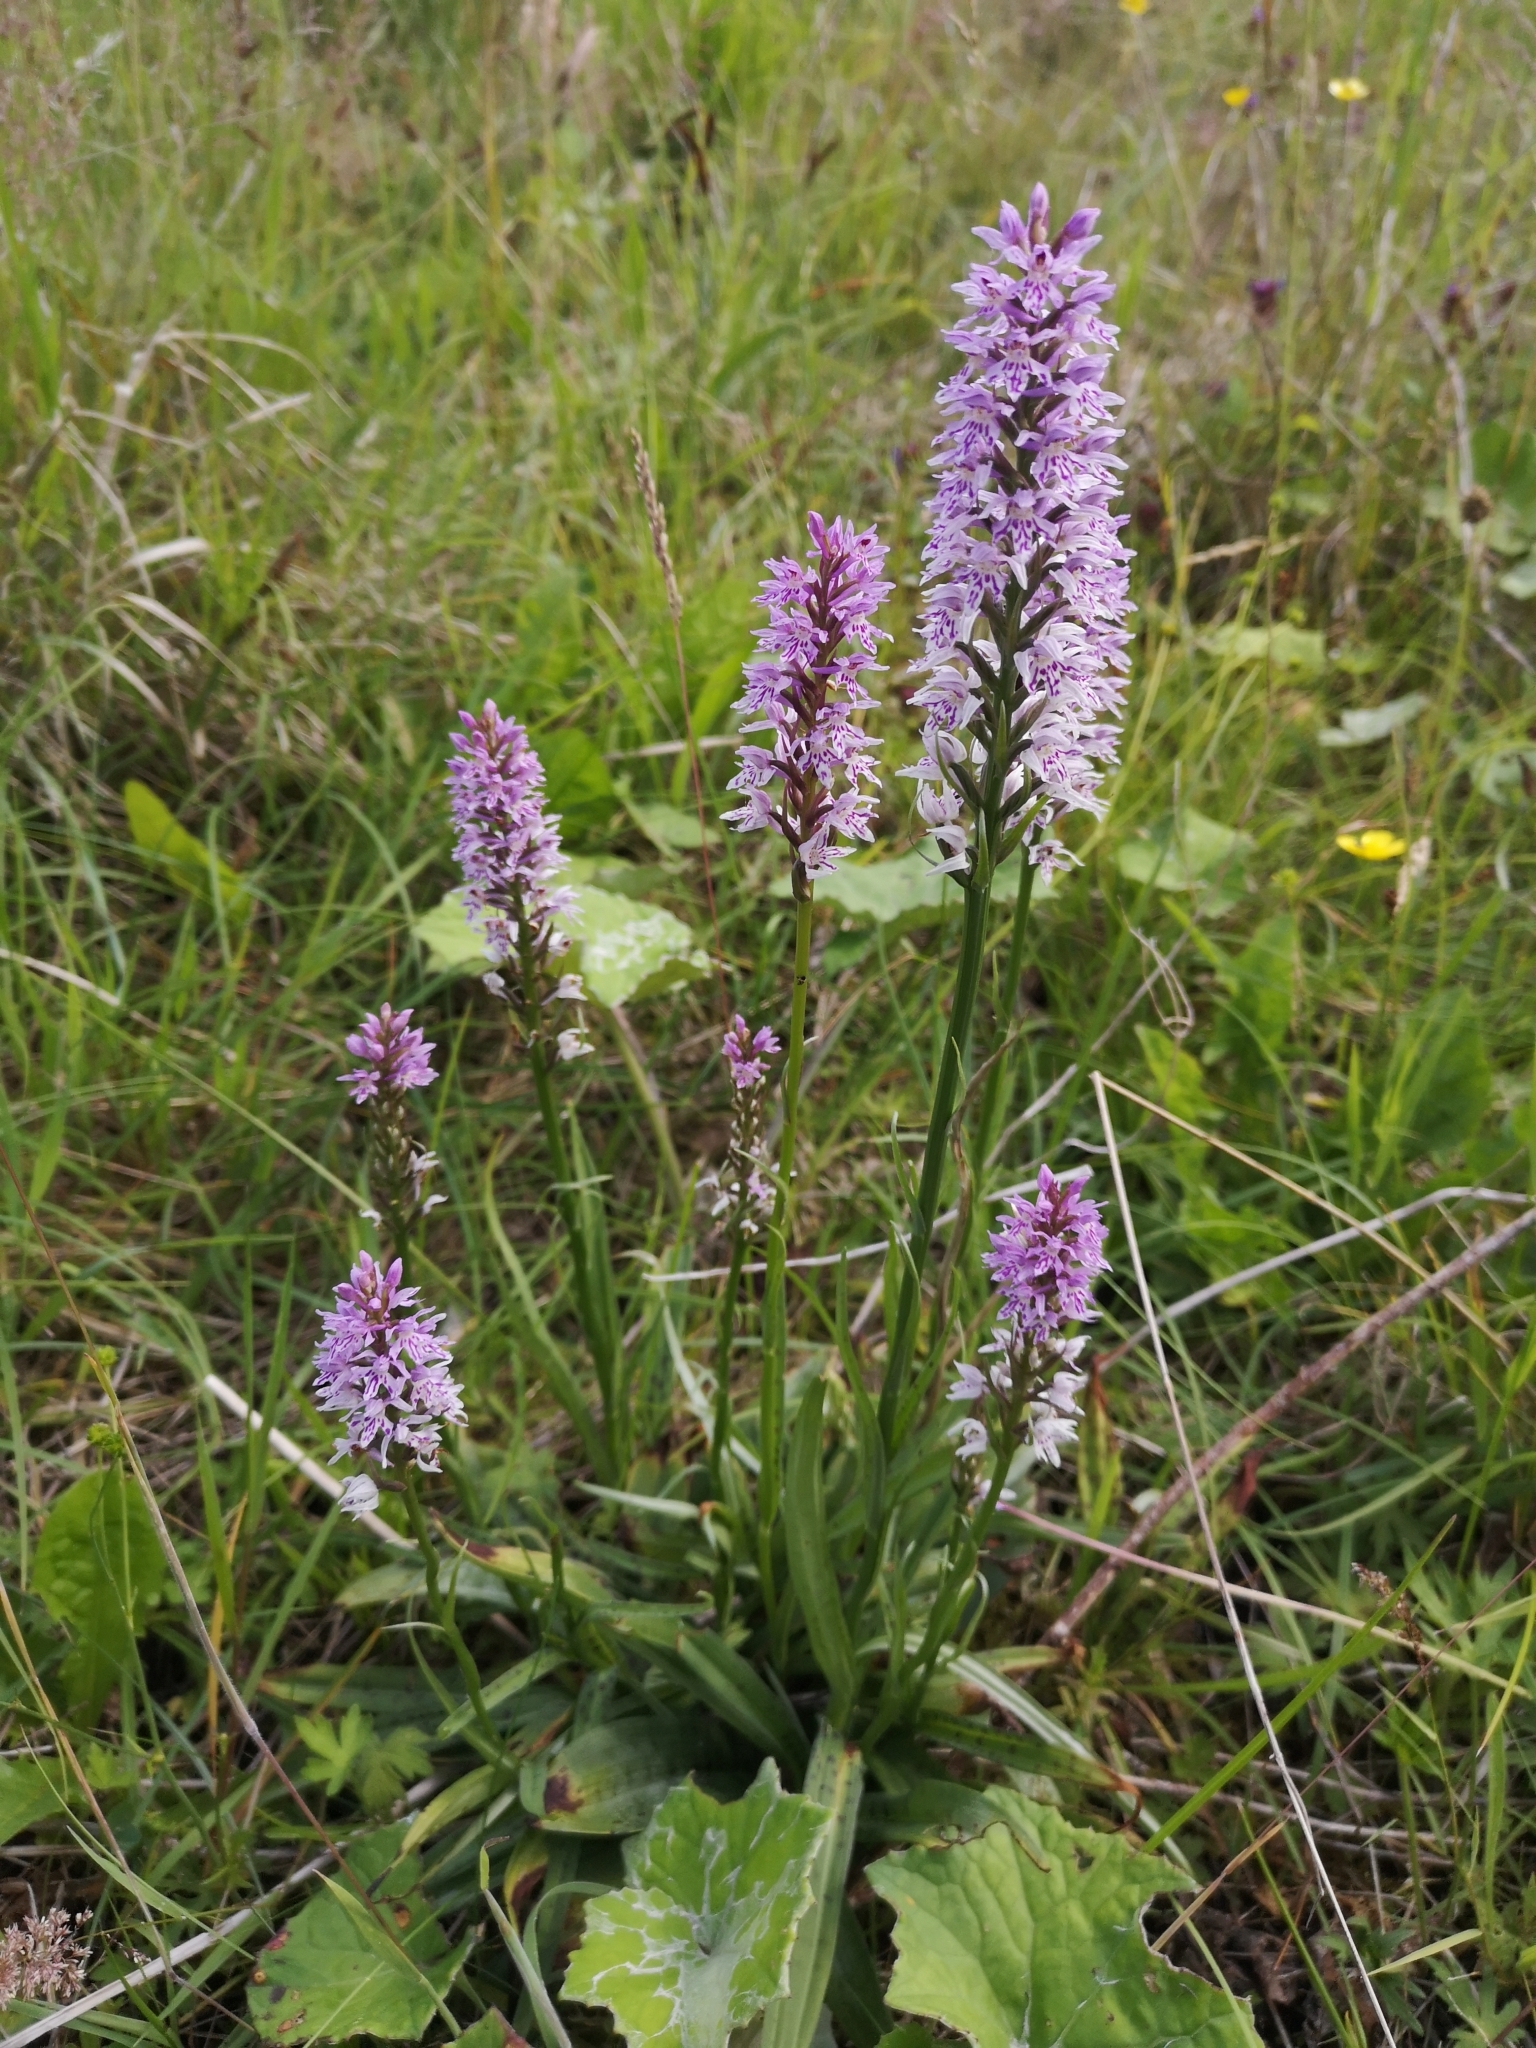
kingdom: Plantae
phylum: Tracheophyta
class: Liliopsida
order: Asparagales
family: Orchidaceae
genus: Dactylorhiza
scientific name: Dactylorhiza maculata
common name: Heath spotted-orchid
